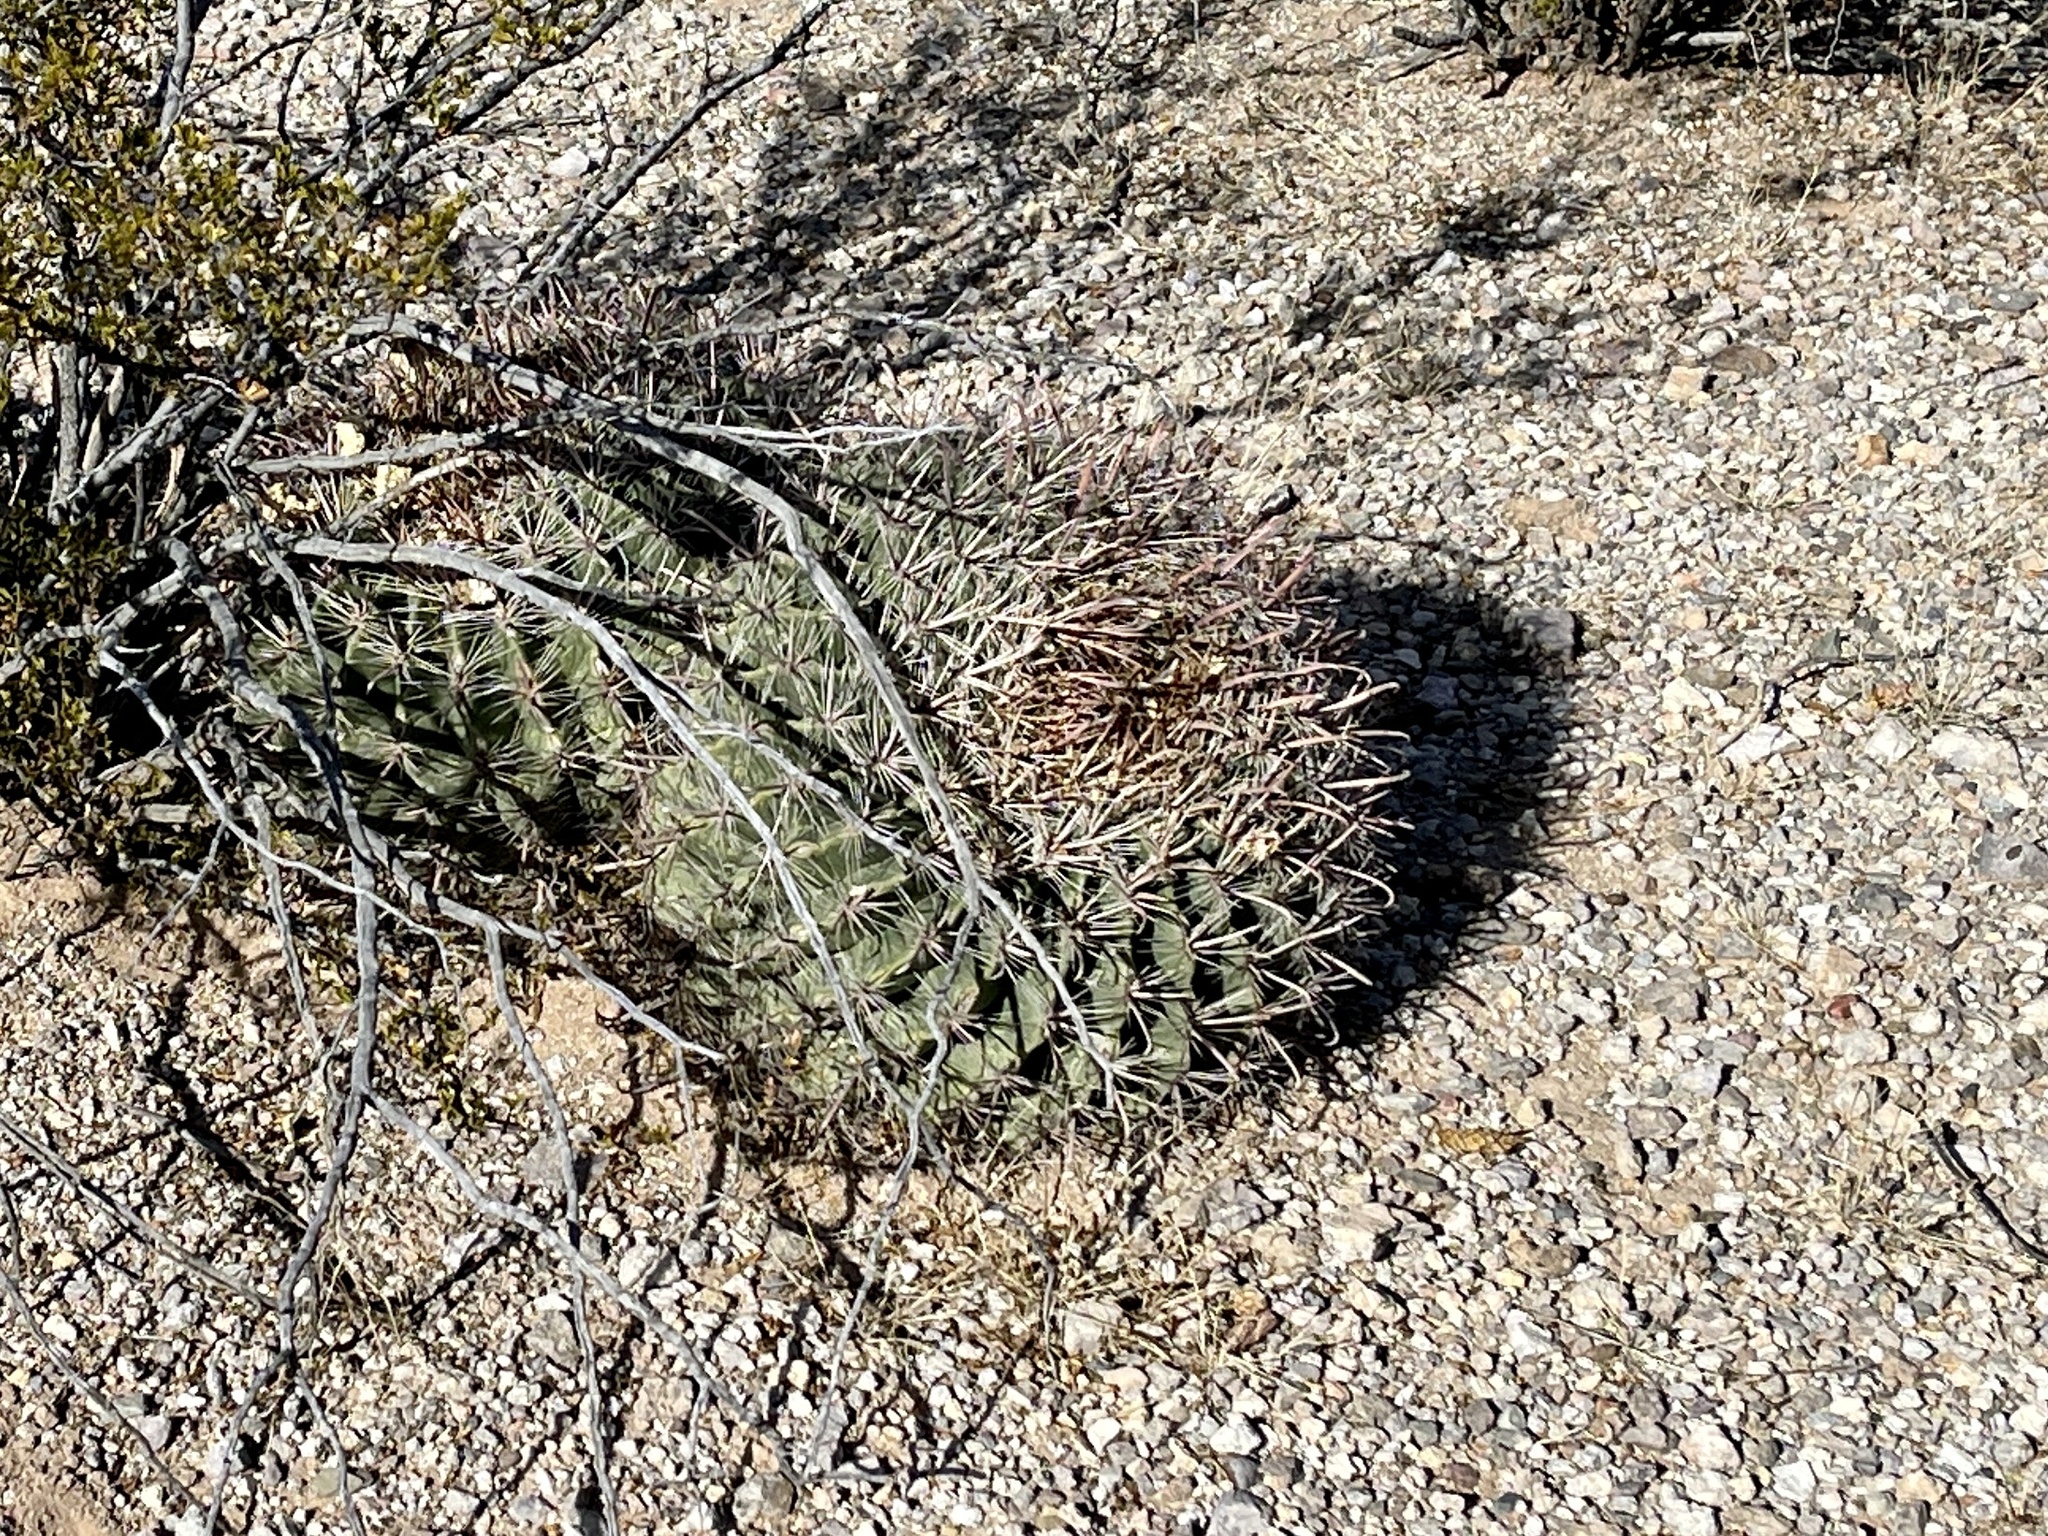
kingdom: Plantae
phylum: Tracheophyta
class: Magnoliopsida
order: Caryophyllales
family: Cactaceae
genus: Ferocactus
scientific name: Ferocactus wislizeni
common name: Candy barrel cactus
